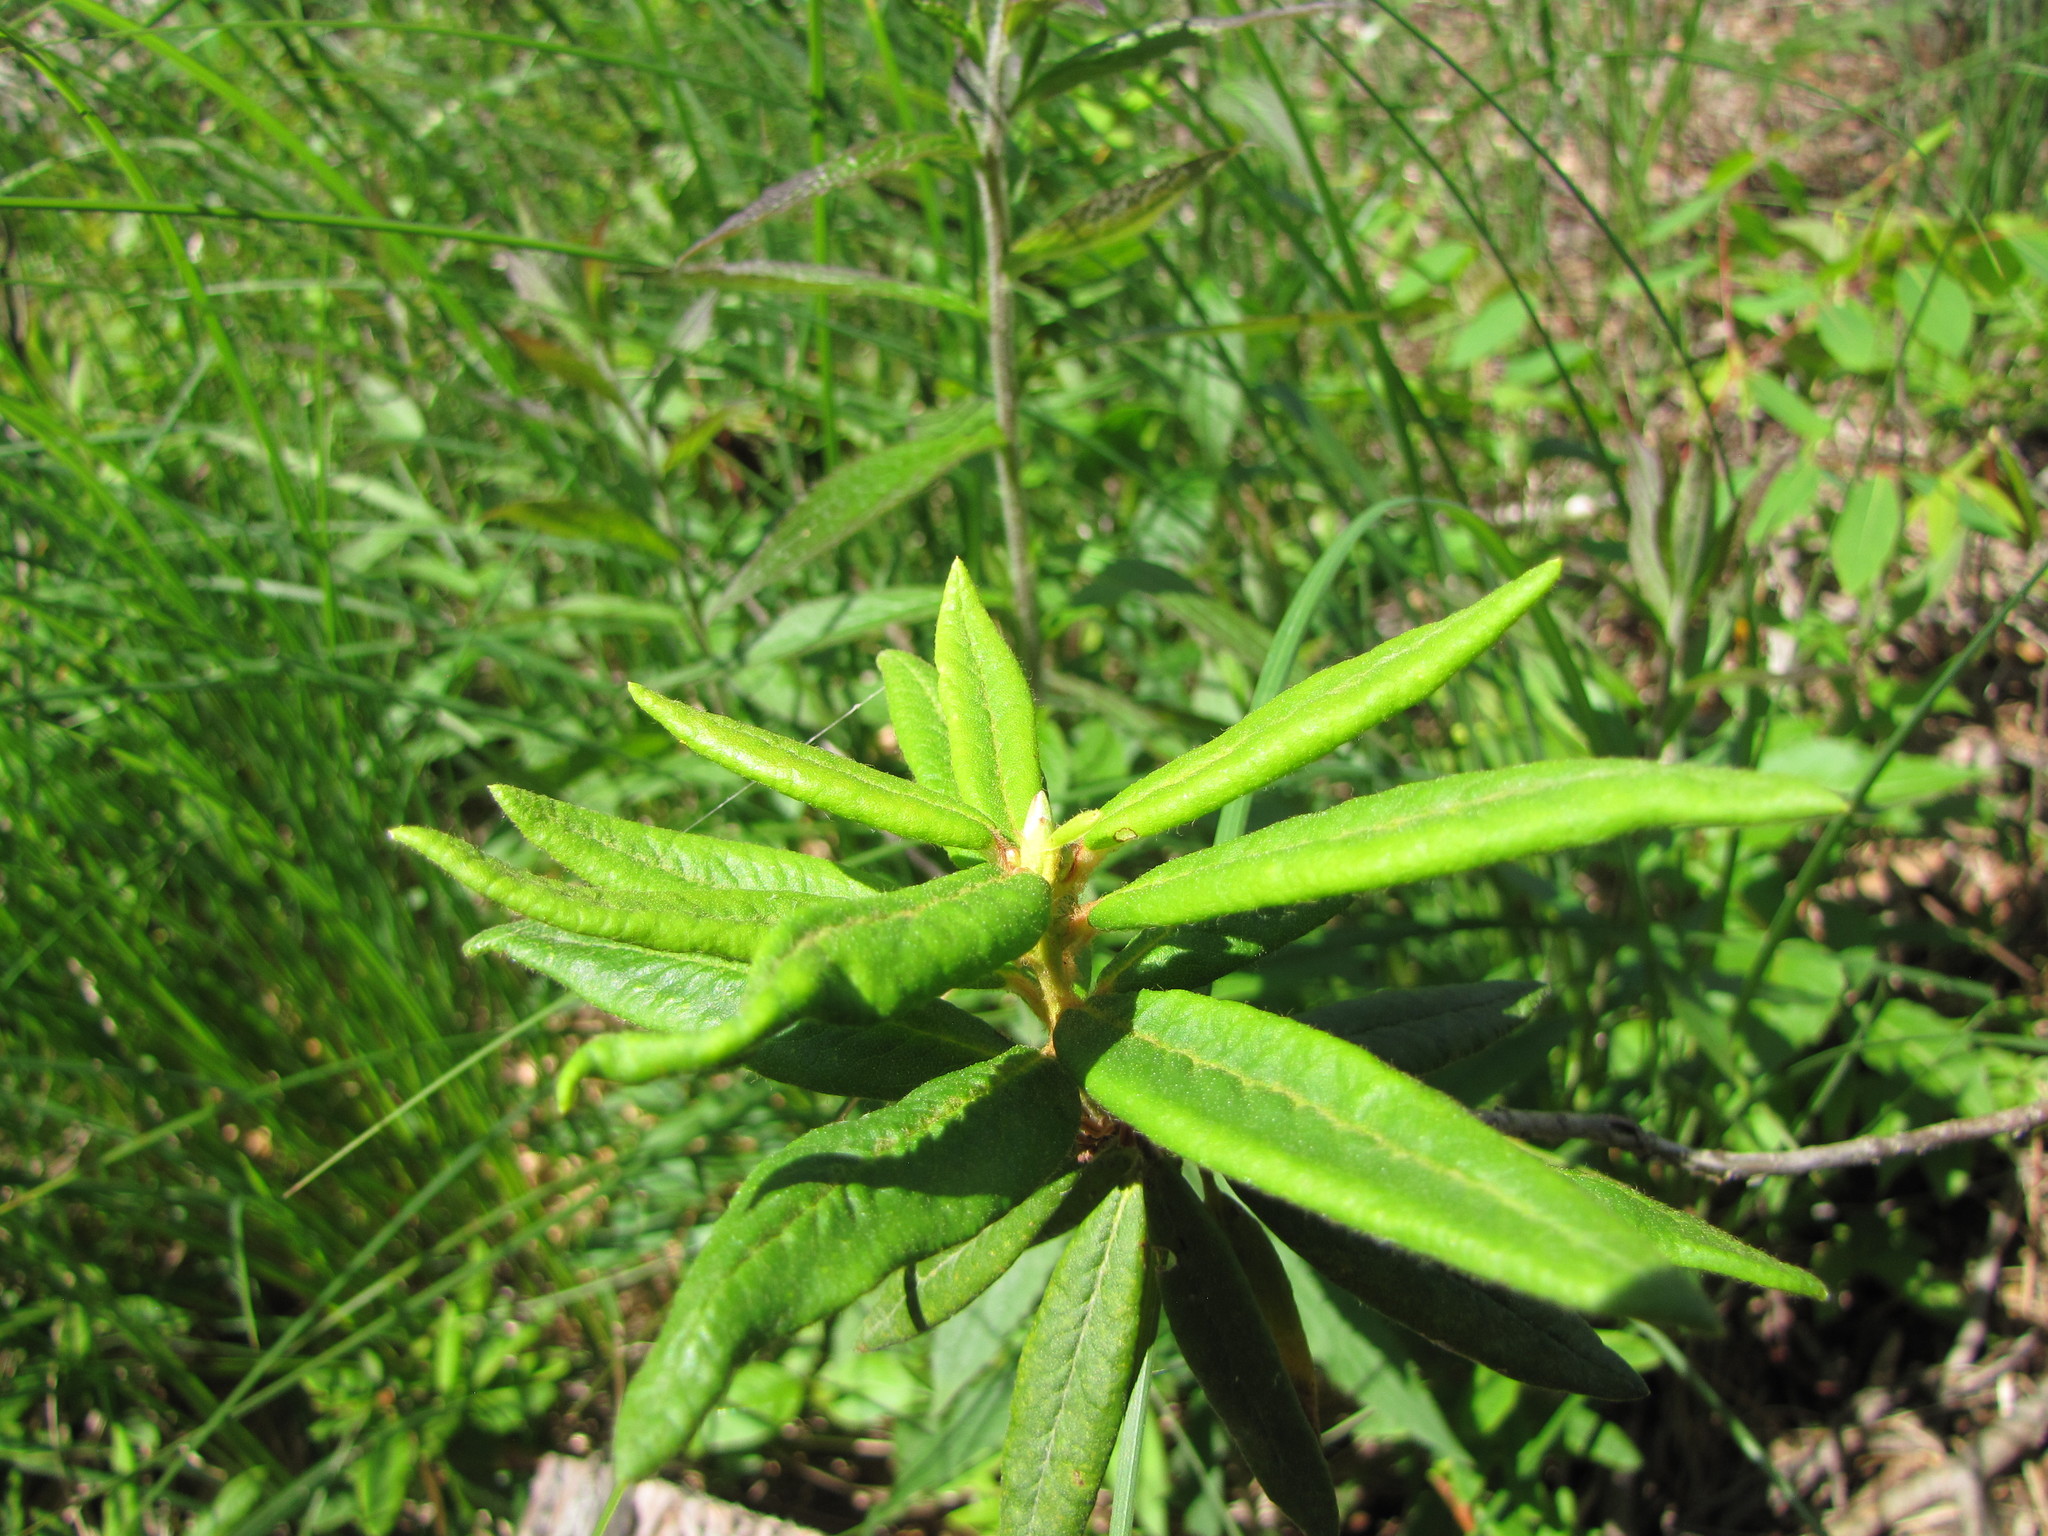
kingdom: Plantae
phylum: Tracheophyta
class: Magnoliopsida
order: Ericales
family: Ericaceae
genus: Rhododendron
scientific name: Rhododendron groenlandicum
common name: Bog labrador tea
